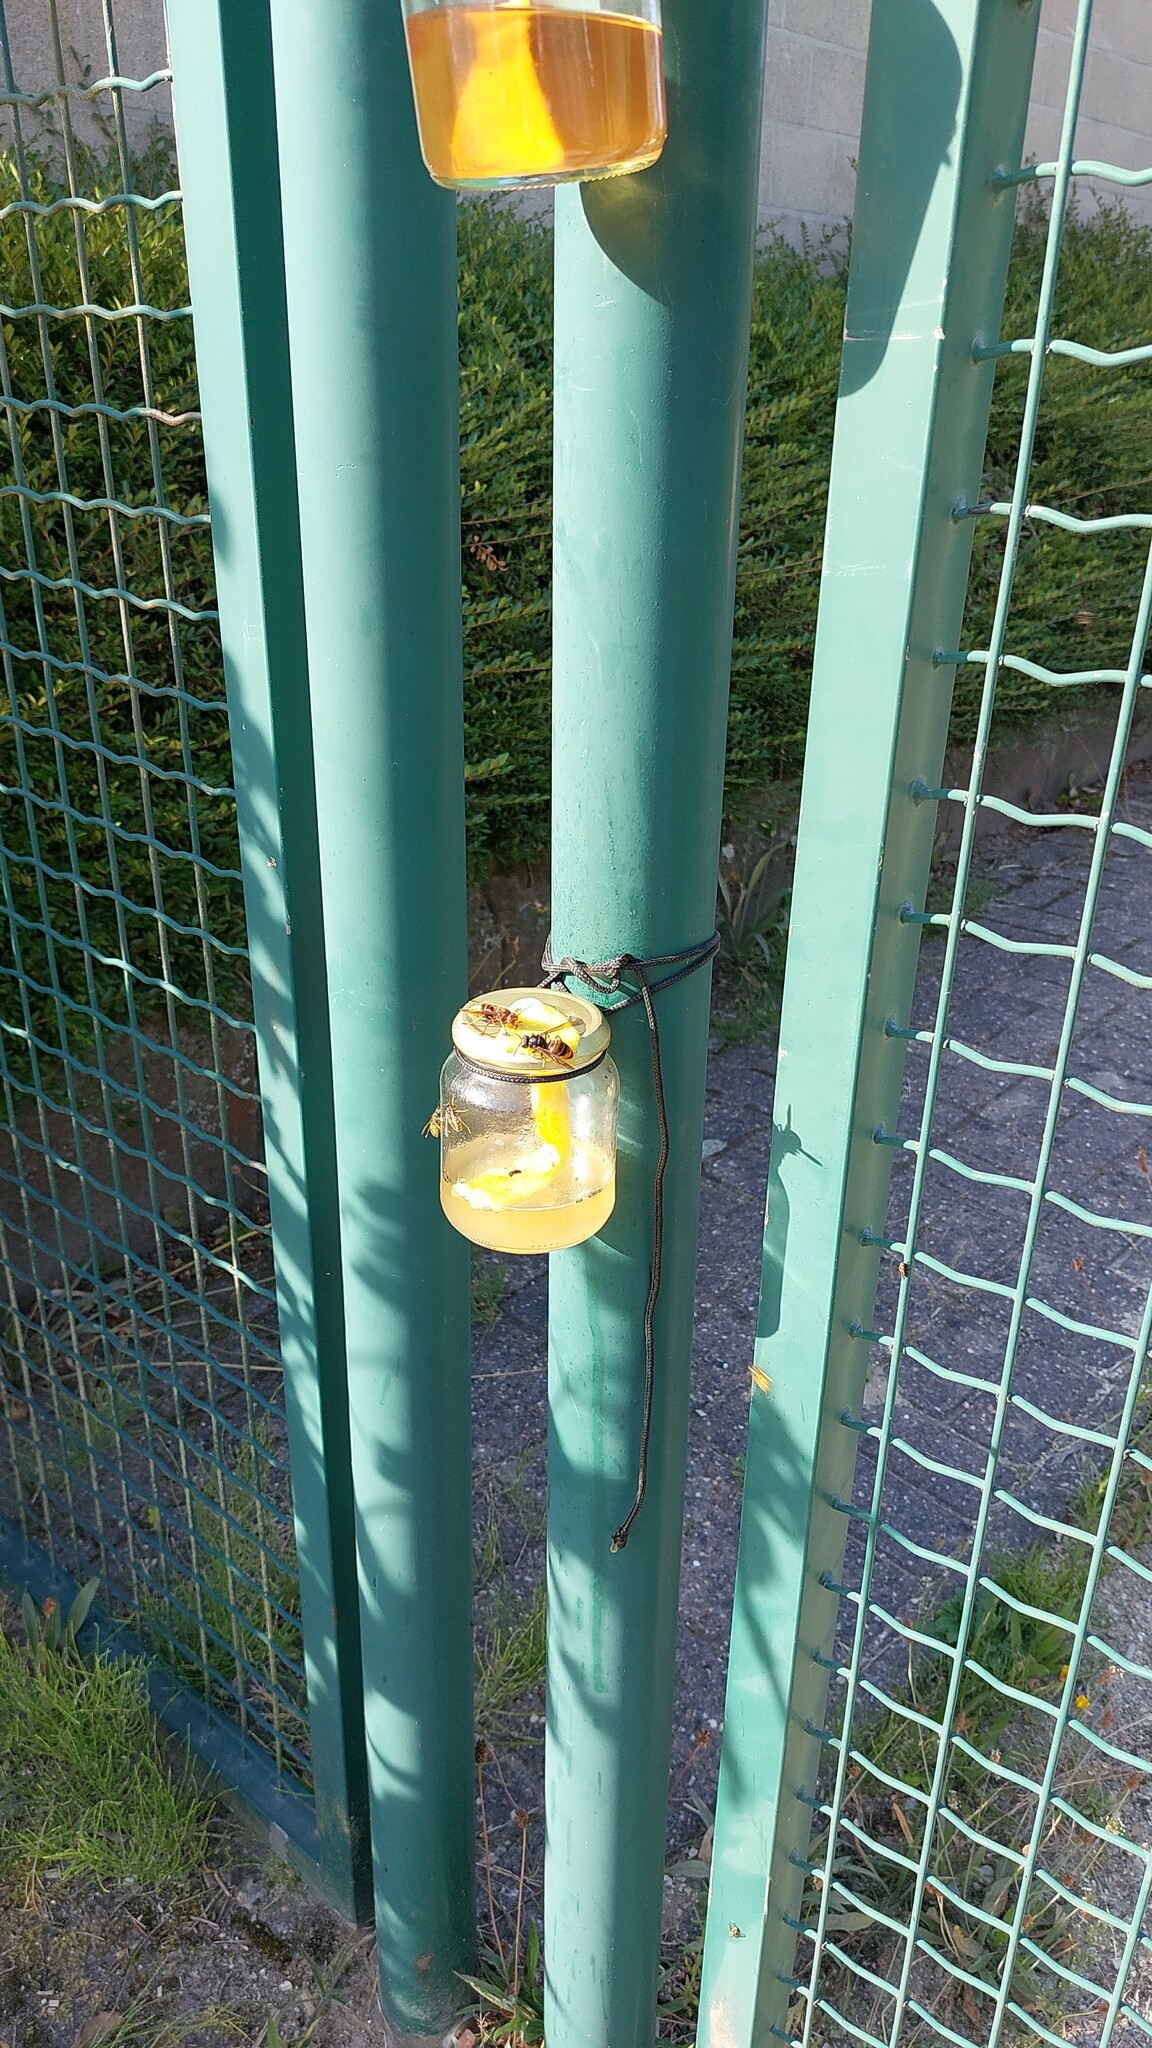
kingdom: Animalia
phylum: Arthropoda
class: Insecta
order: Hymenoptera
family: Vespidae
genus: Vespa
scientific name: Vespa velutina
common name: Asian hornet
